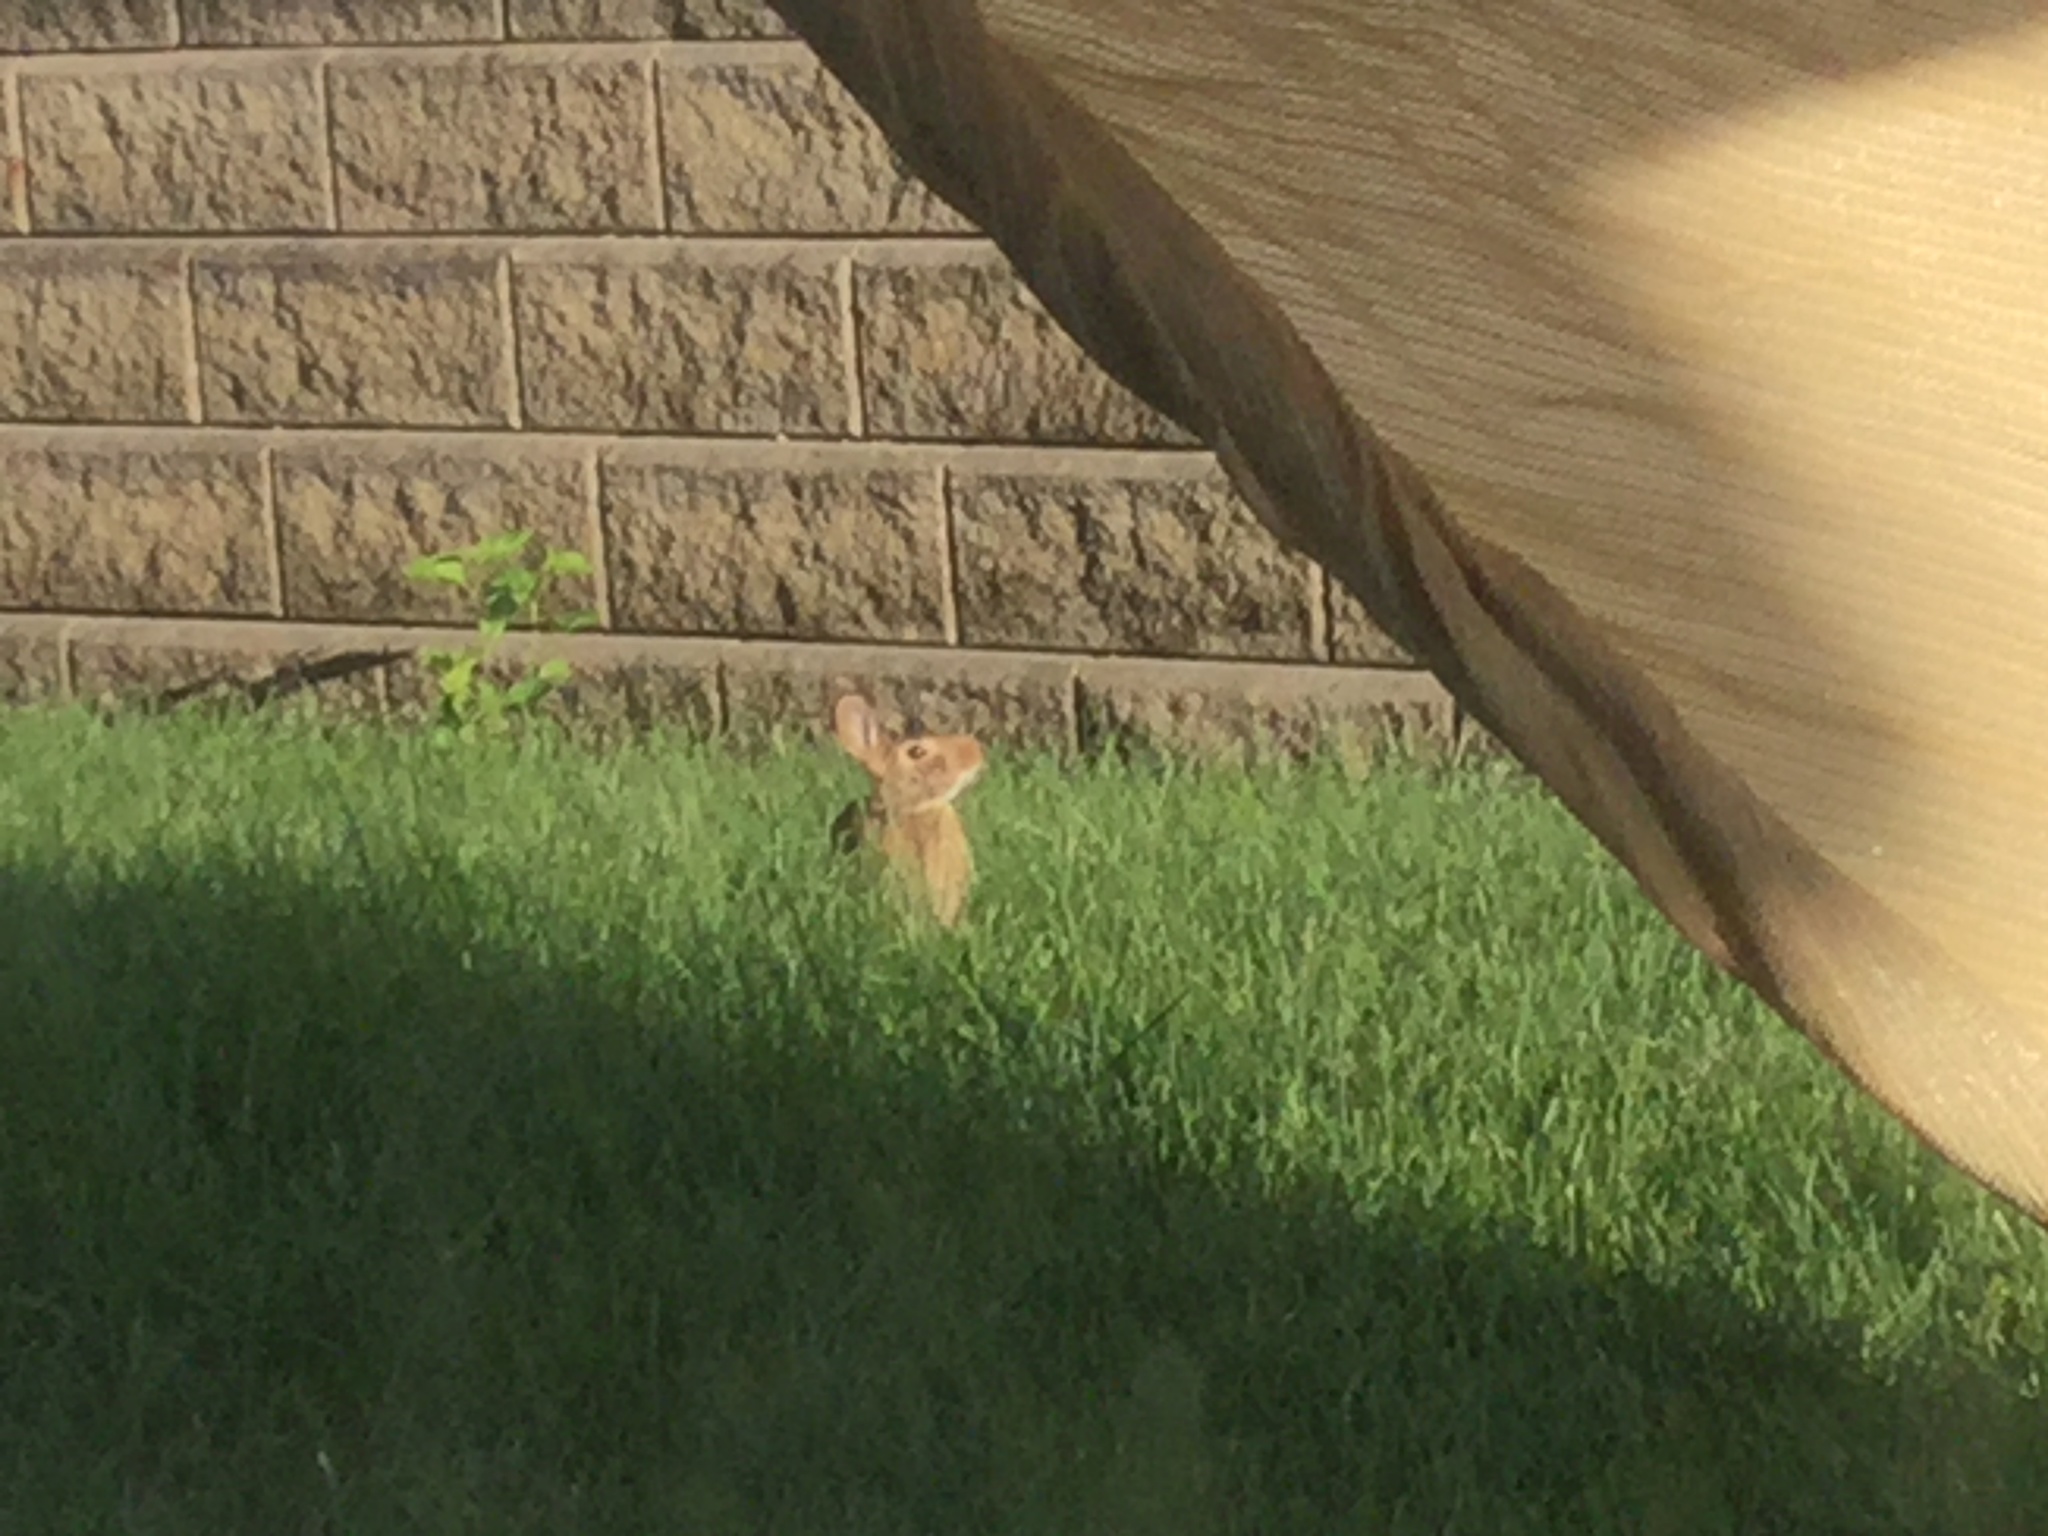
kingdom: Animalia
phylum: Chordata
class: Mammalia
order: Lagomorpha
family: Leporidae
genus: Sylvilagus
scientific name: Sylvilagus floridanus
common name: Eastern cottontail
